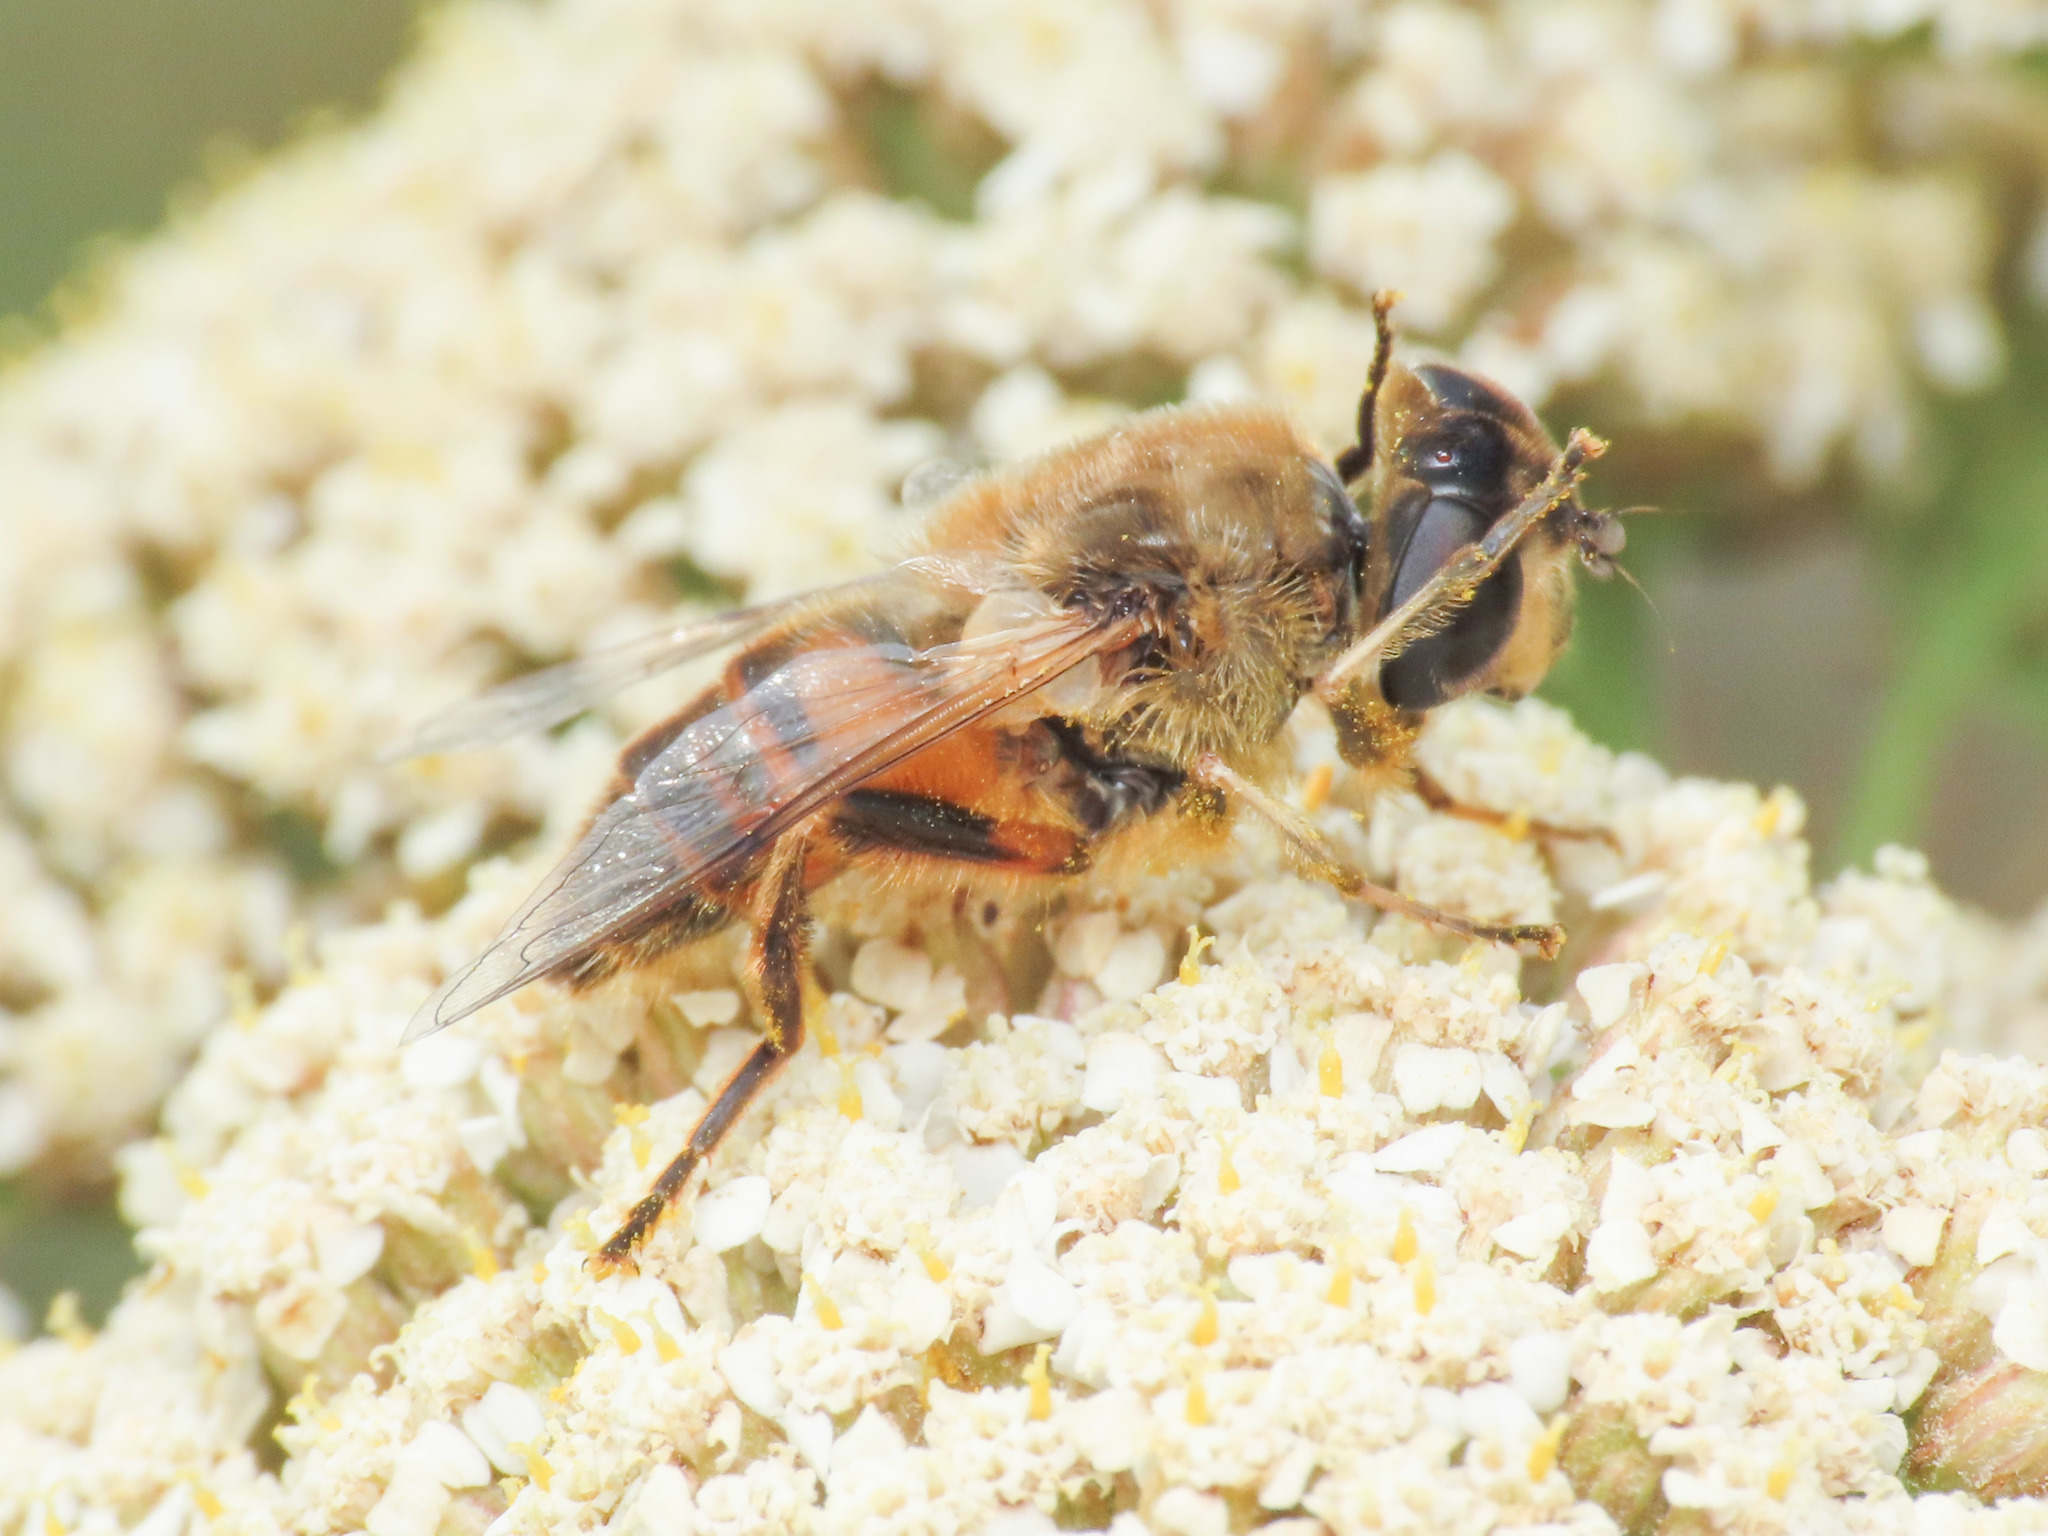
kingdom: Animalia
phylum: Arthropoda
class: Insecta
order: Diptera
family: Syrphidae
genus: Eristalis
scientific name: Eristalis tenax
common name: Drone fly
